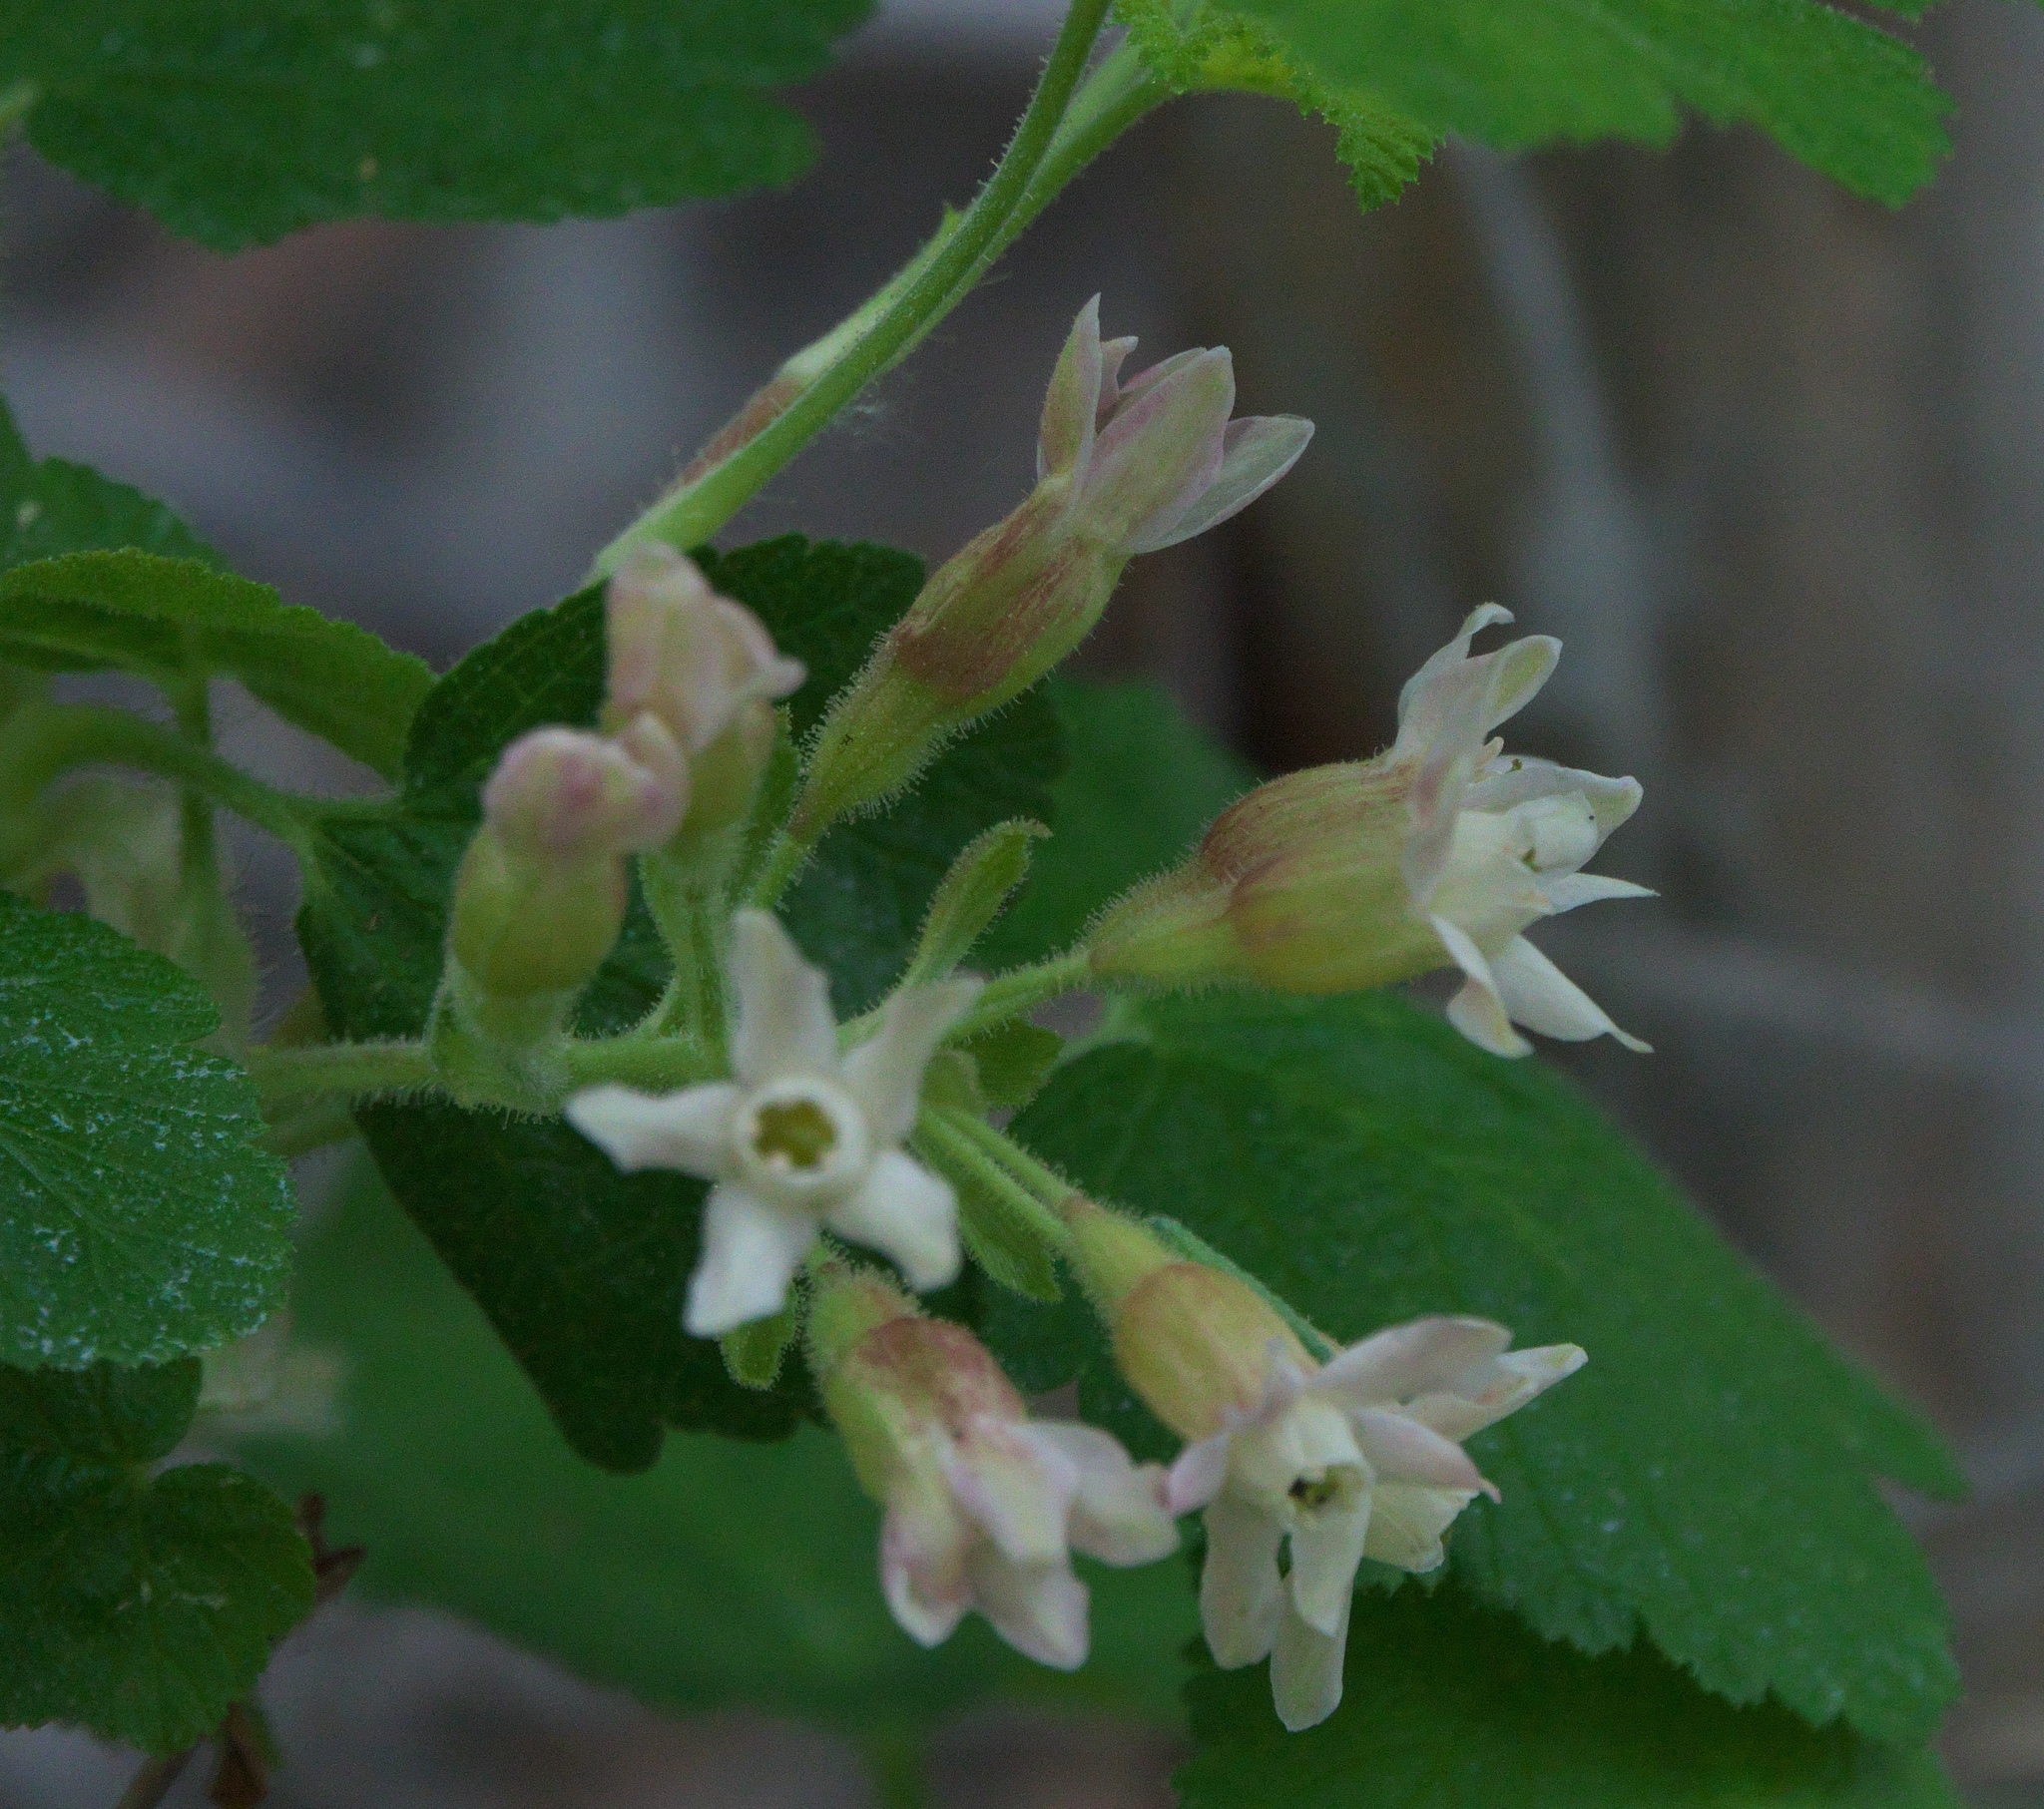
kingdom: Plantae
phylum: Tracheophyta
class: Magnoliopsida
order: Saxifragales
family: Grossulariaceae
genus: Ribes
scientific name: Ribes viscosissimum
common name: Sticky currant
